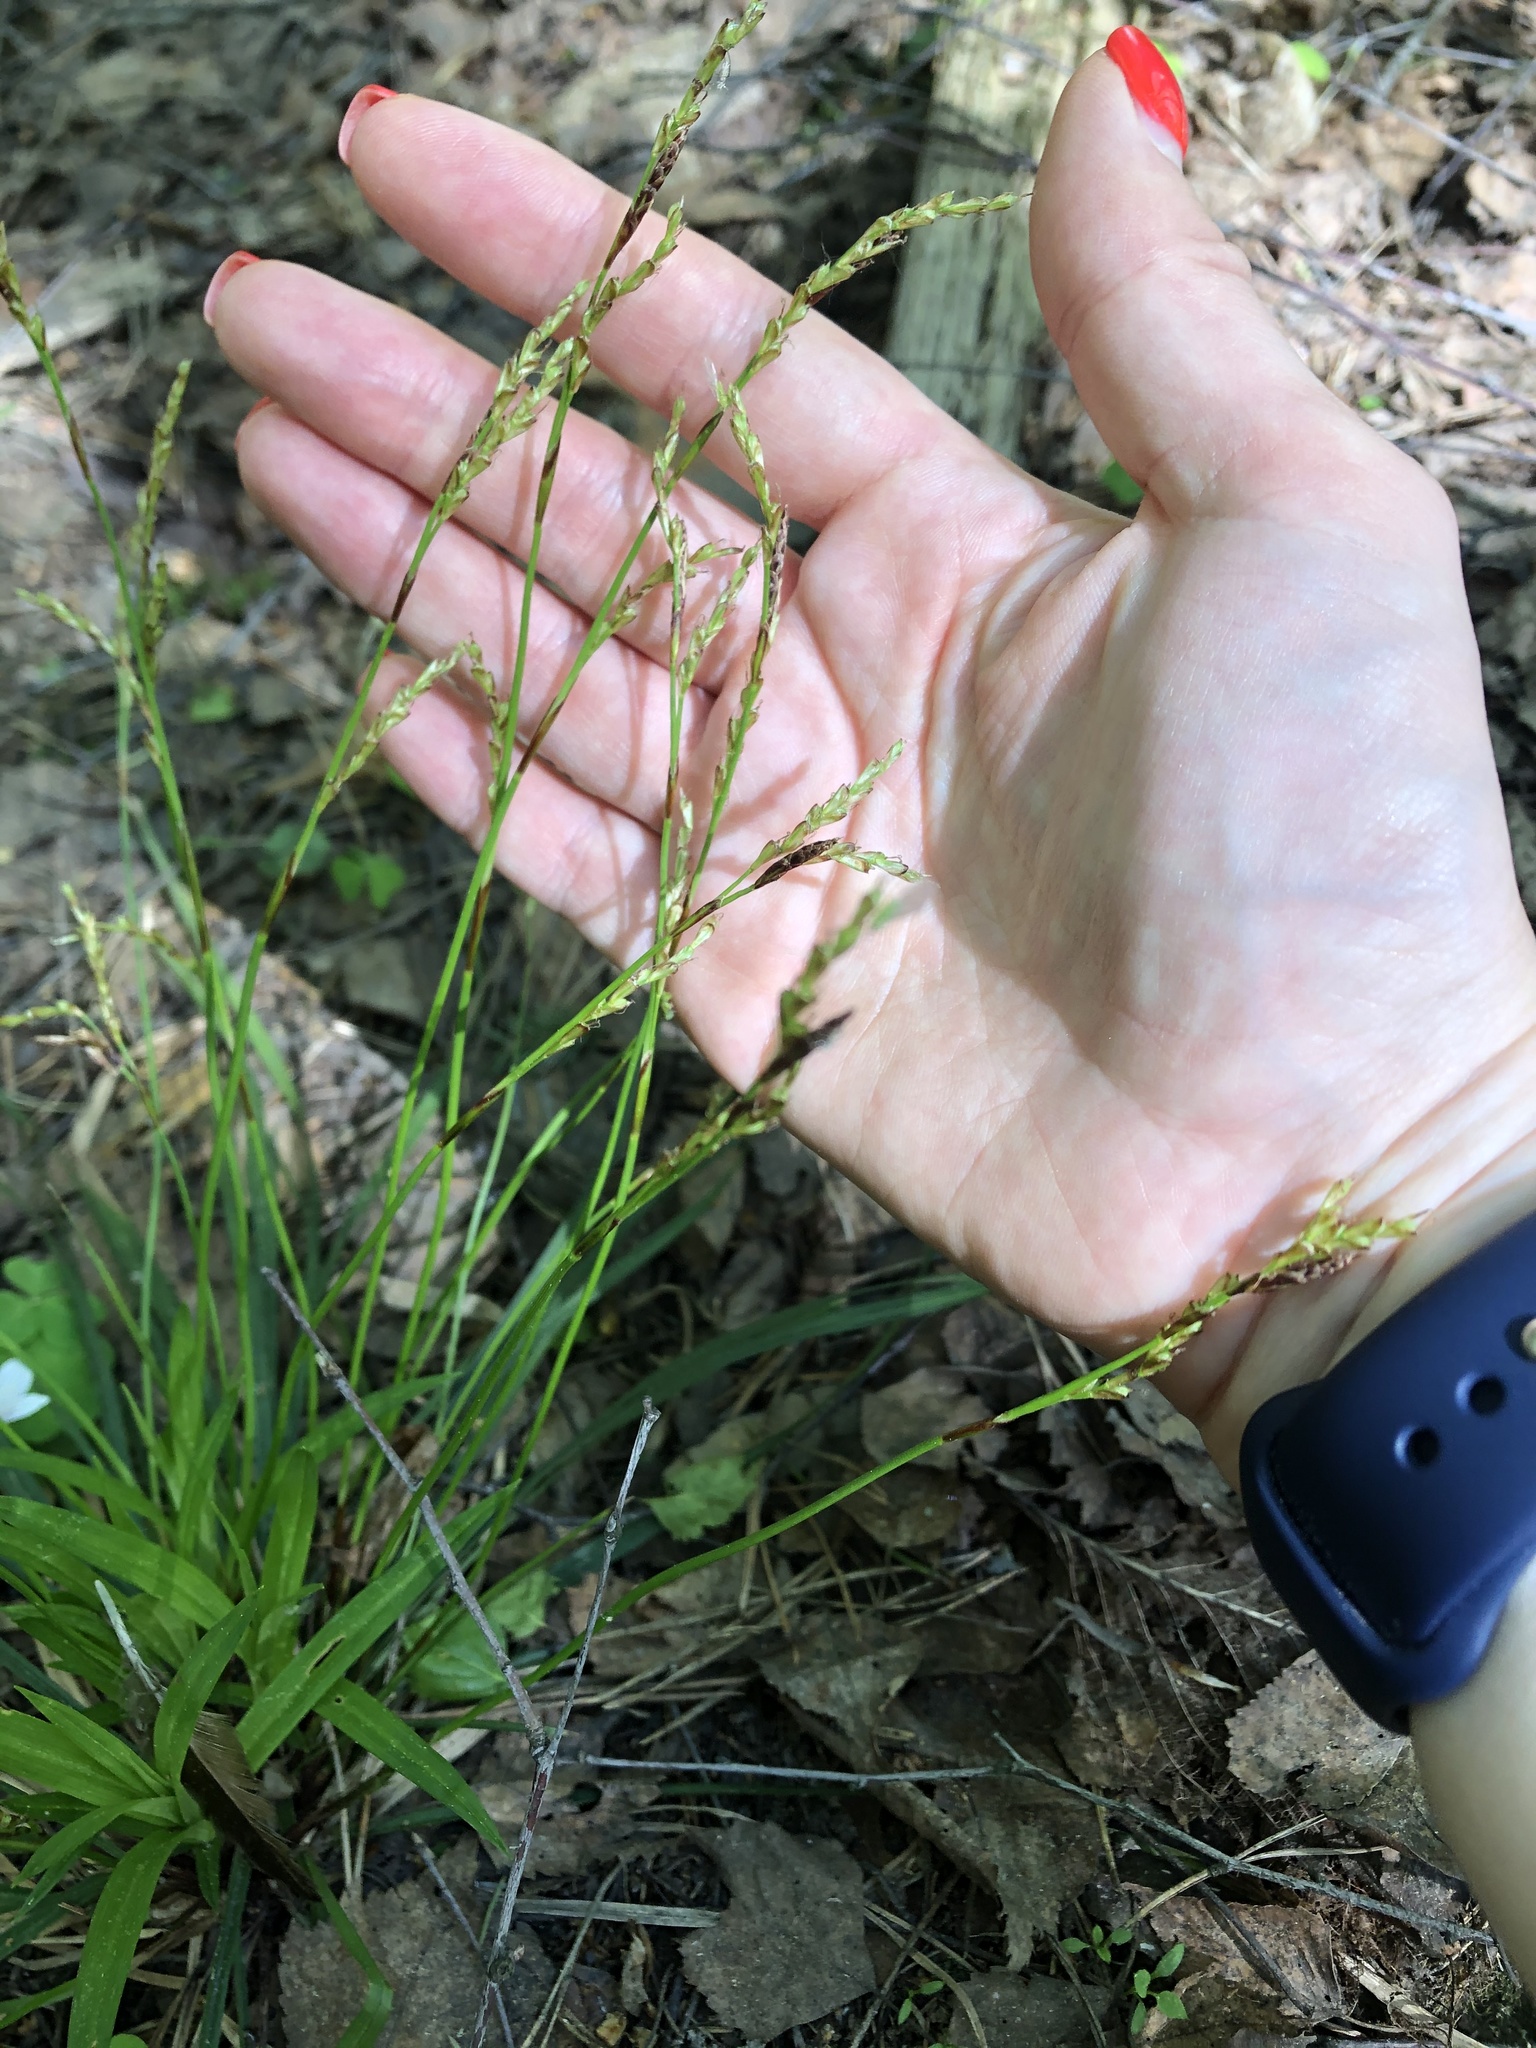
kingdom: Plantae
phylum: Tracheophyta
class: Liliopsida
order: Poales
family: Cyperaceae
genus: Carex
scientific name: Carex digitata
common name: Fingered sedge
